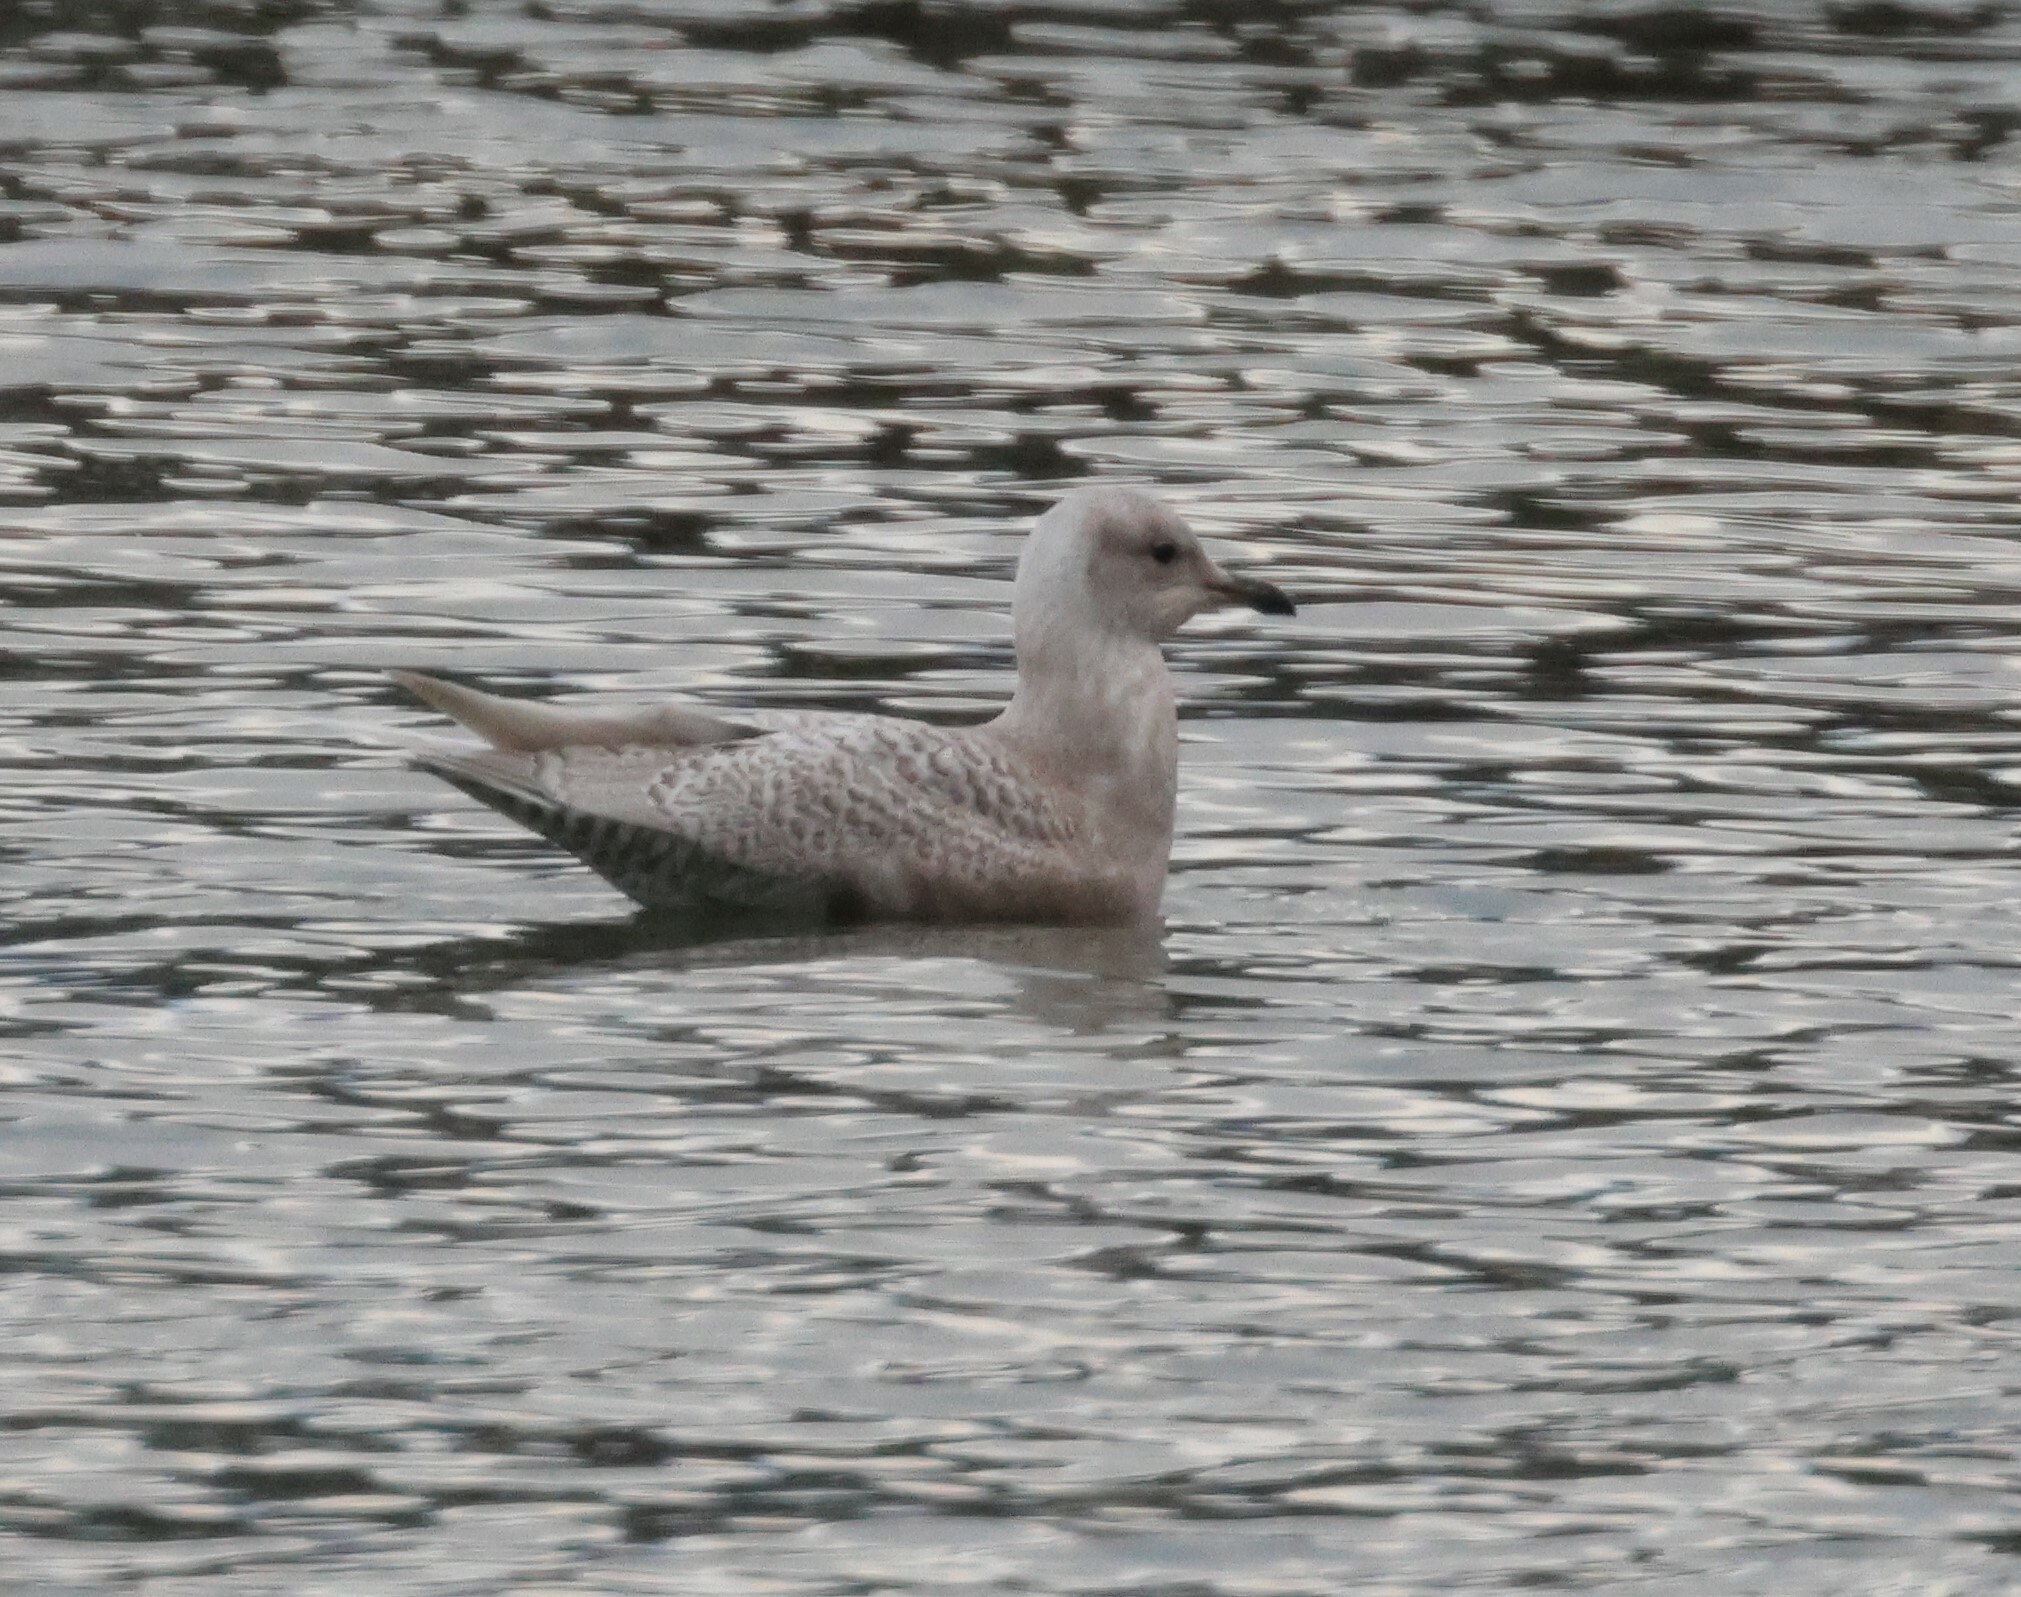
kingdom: Animalia
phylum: Chordata
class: Aves
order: Charadriiformes
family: Laridae
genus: Larus
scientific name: Larus glaucoides
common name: Iceland gull
